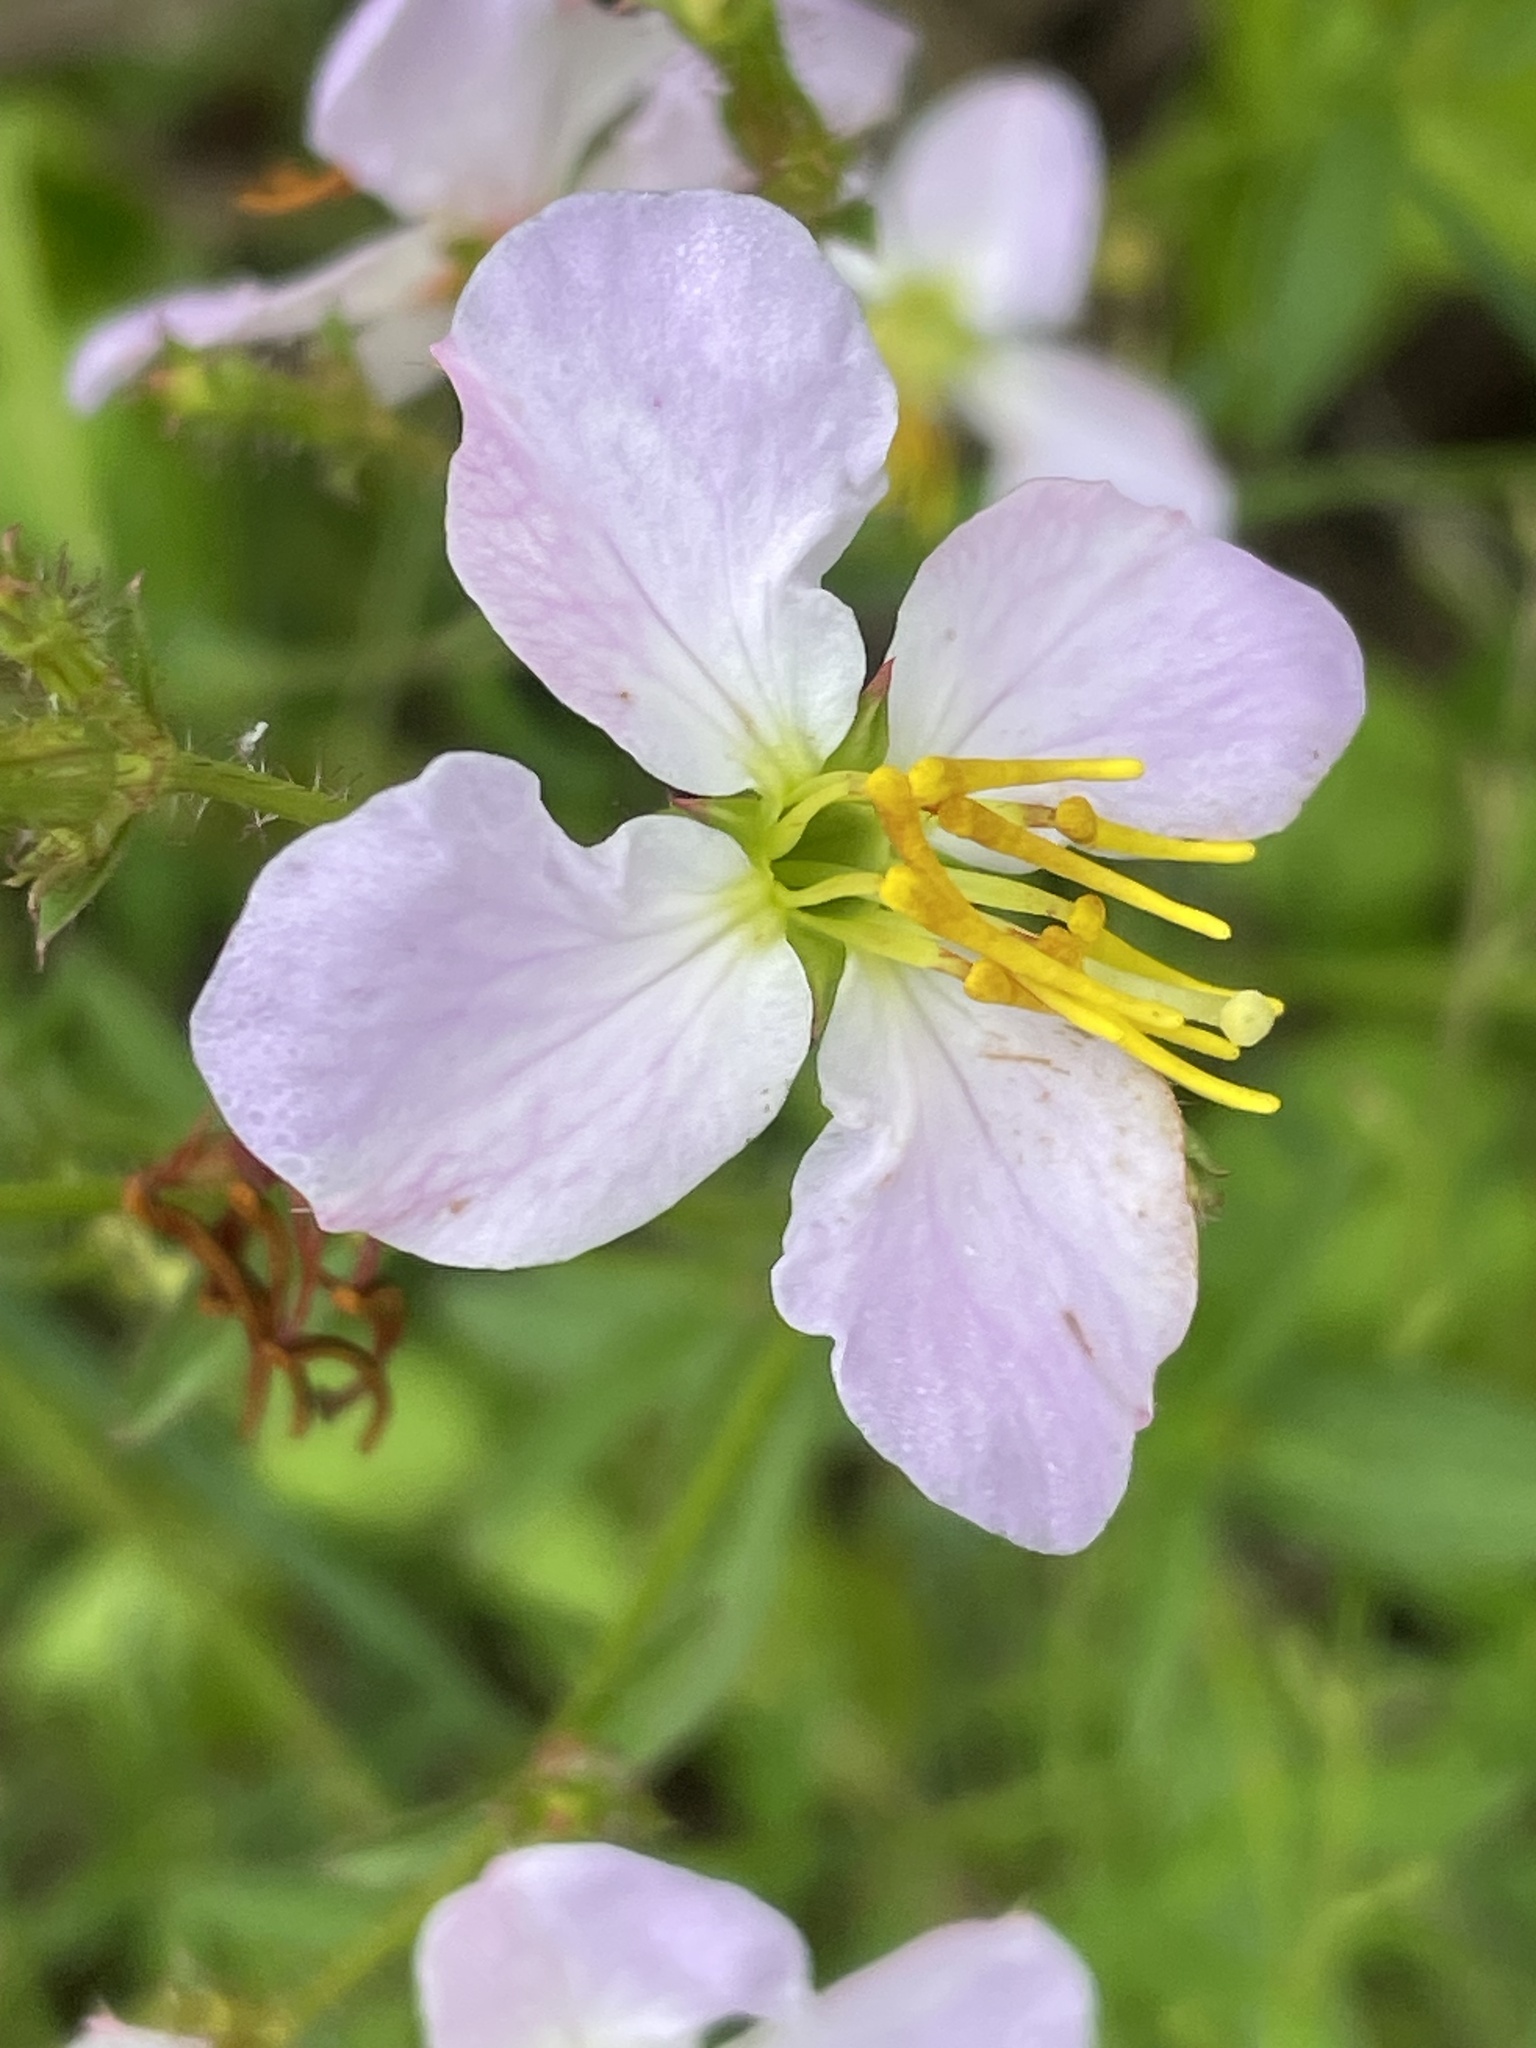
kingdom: Plantae
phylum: Tracheophyta
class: Magnoliopsida
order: Myrtales
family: Melastomataceae
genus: Rhexia
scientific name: Rhexia mariana
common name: Dull meadow-pitcher
